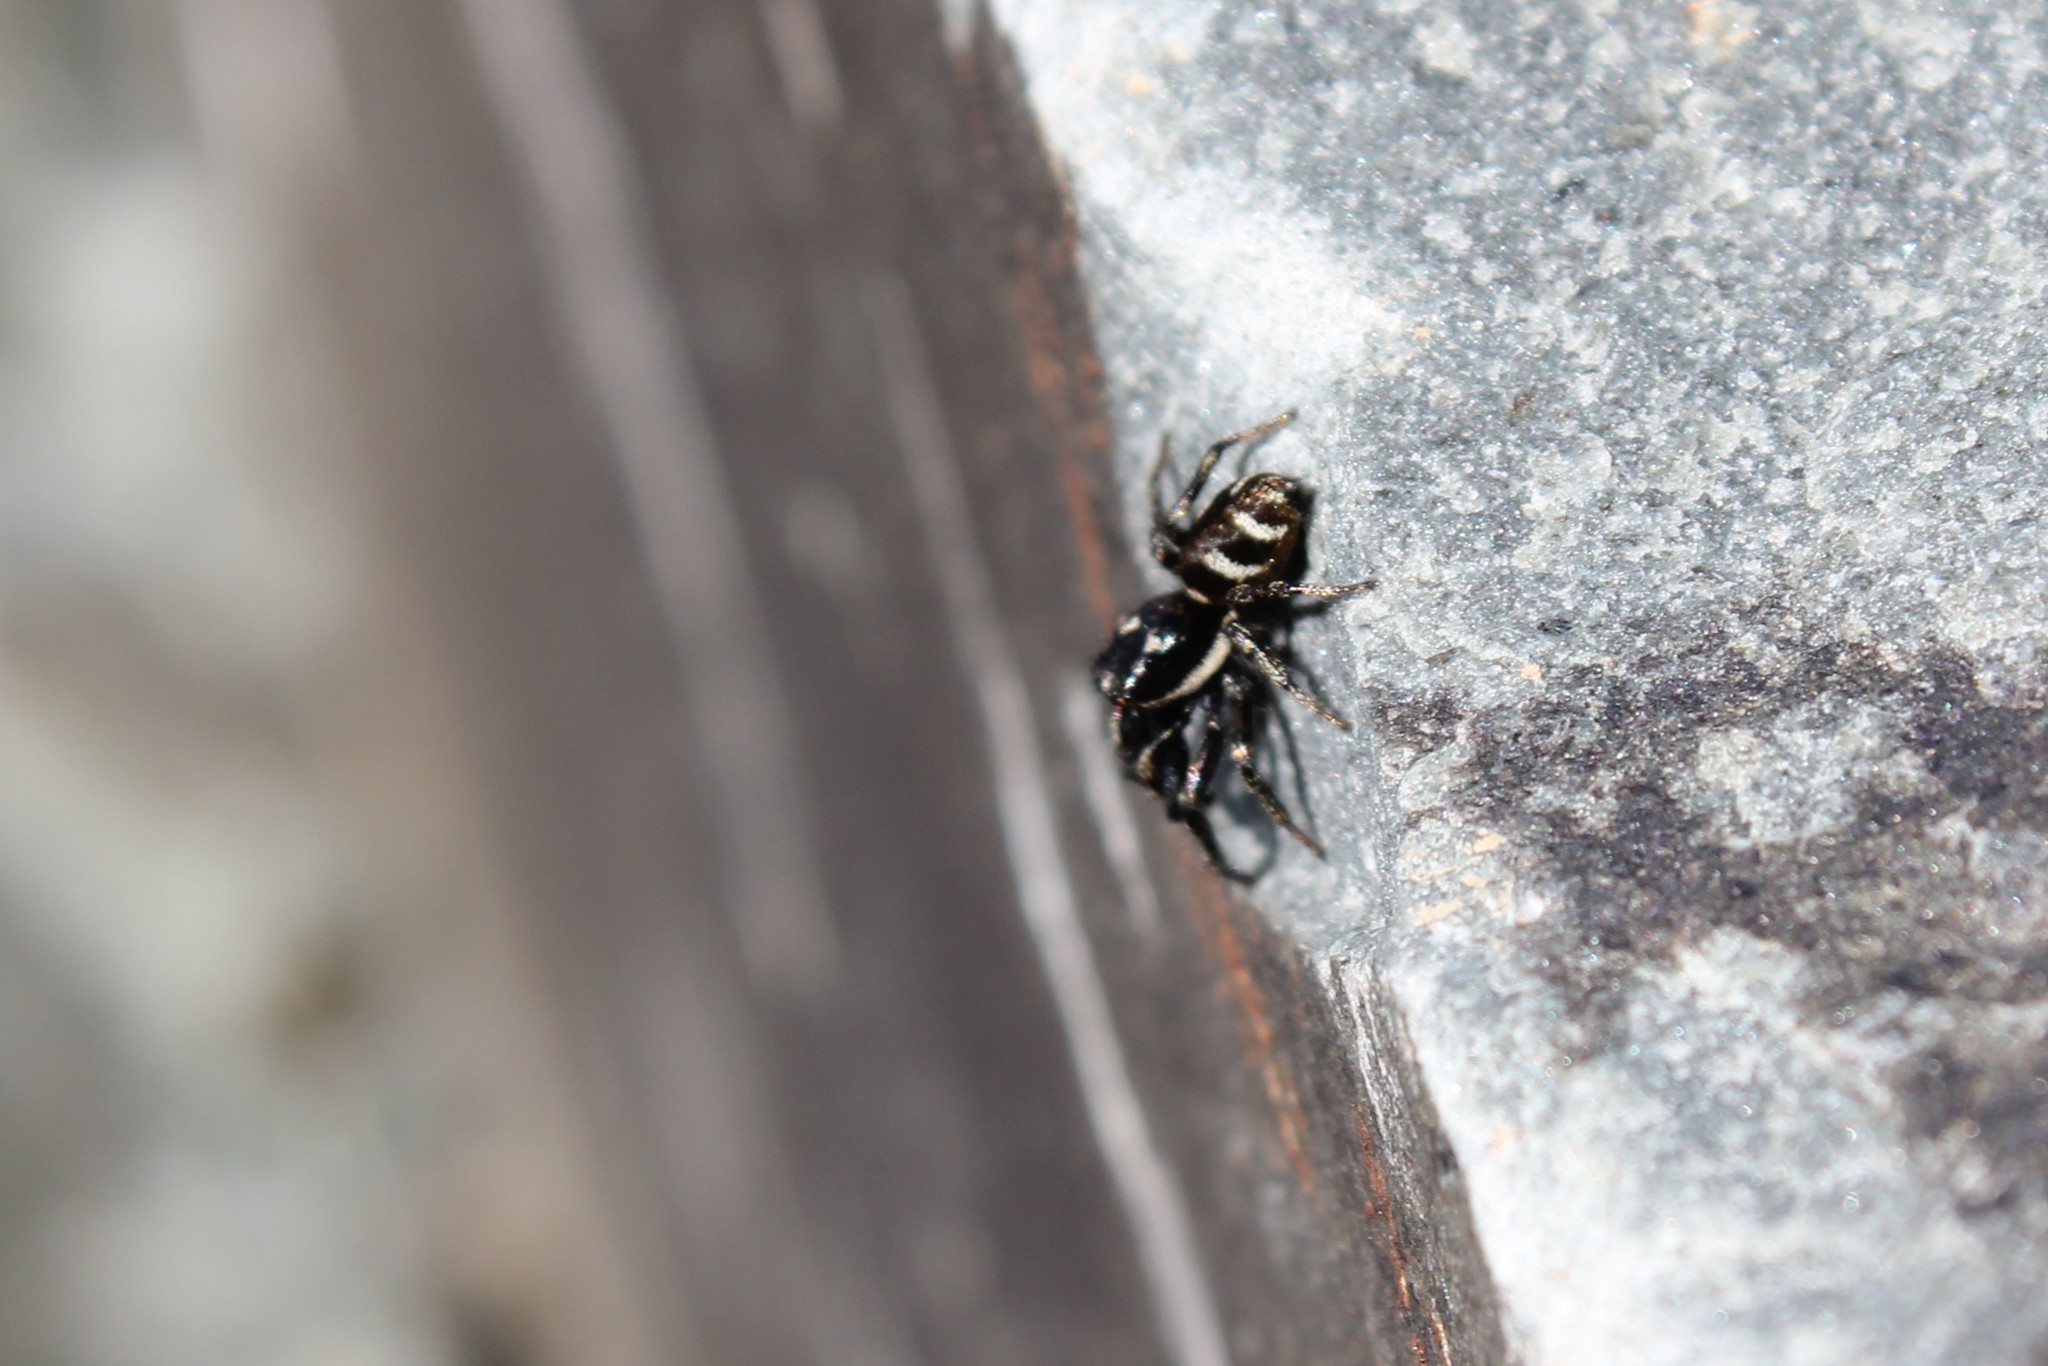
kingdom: Animalia
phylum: Arthropoda
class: Arachnida
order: Araneae
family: Salticidae
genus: Salticus
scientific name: Salticus scenicus
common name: Zebra jumper
